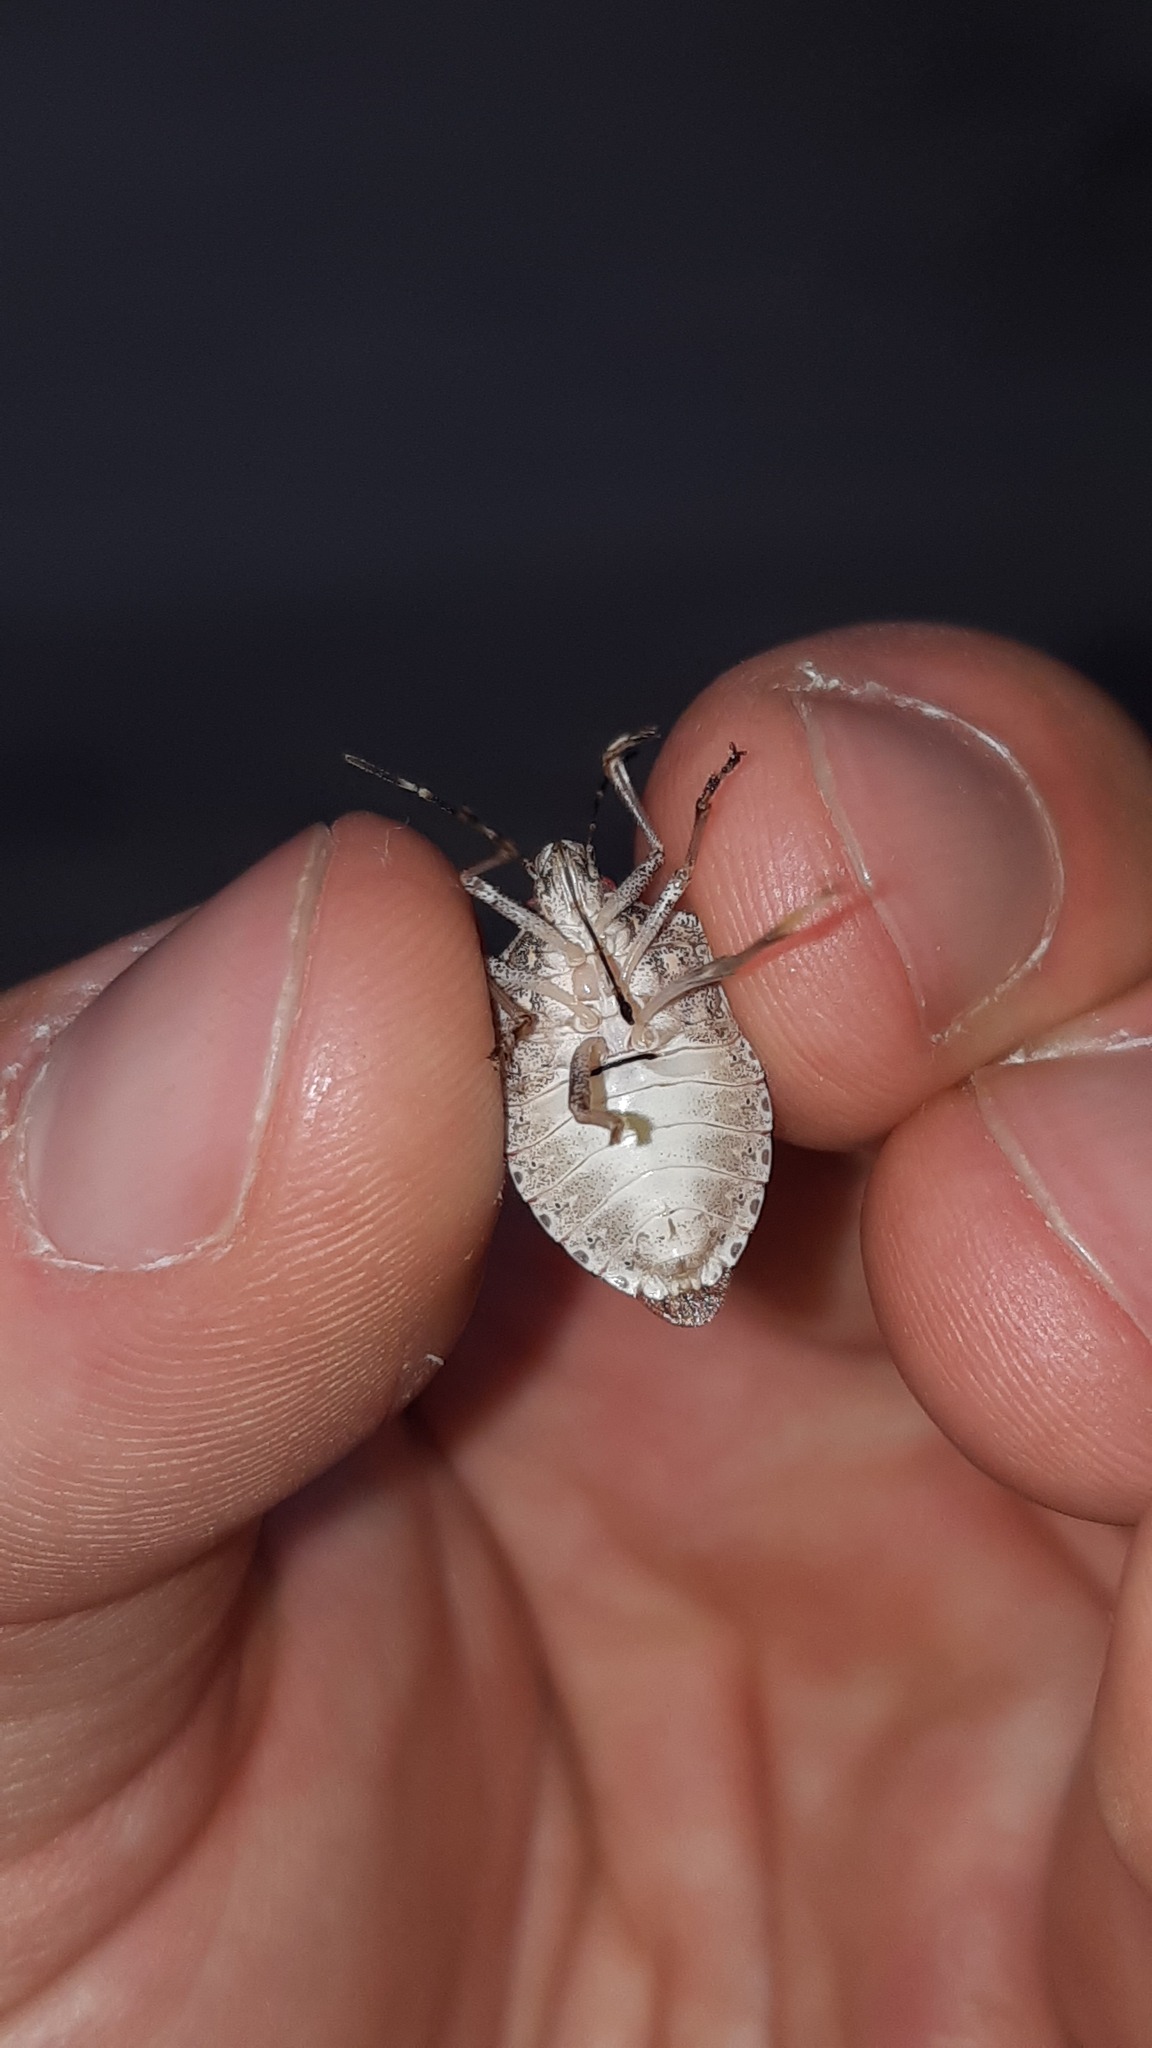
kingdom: Animalia
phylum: Arthropoda
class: Insecta
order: Hemiptera
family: Pentatomidae
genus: Halyomorpha
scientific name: Halyomorpha halys
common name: Brown marmorated stink bug
